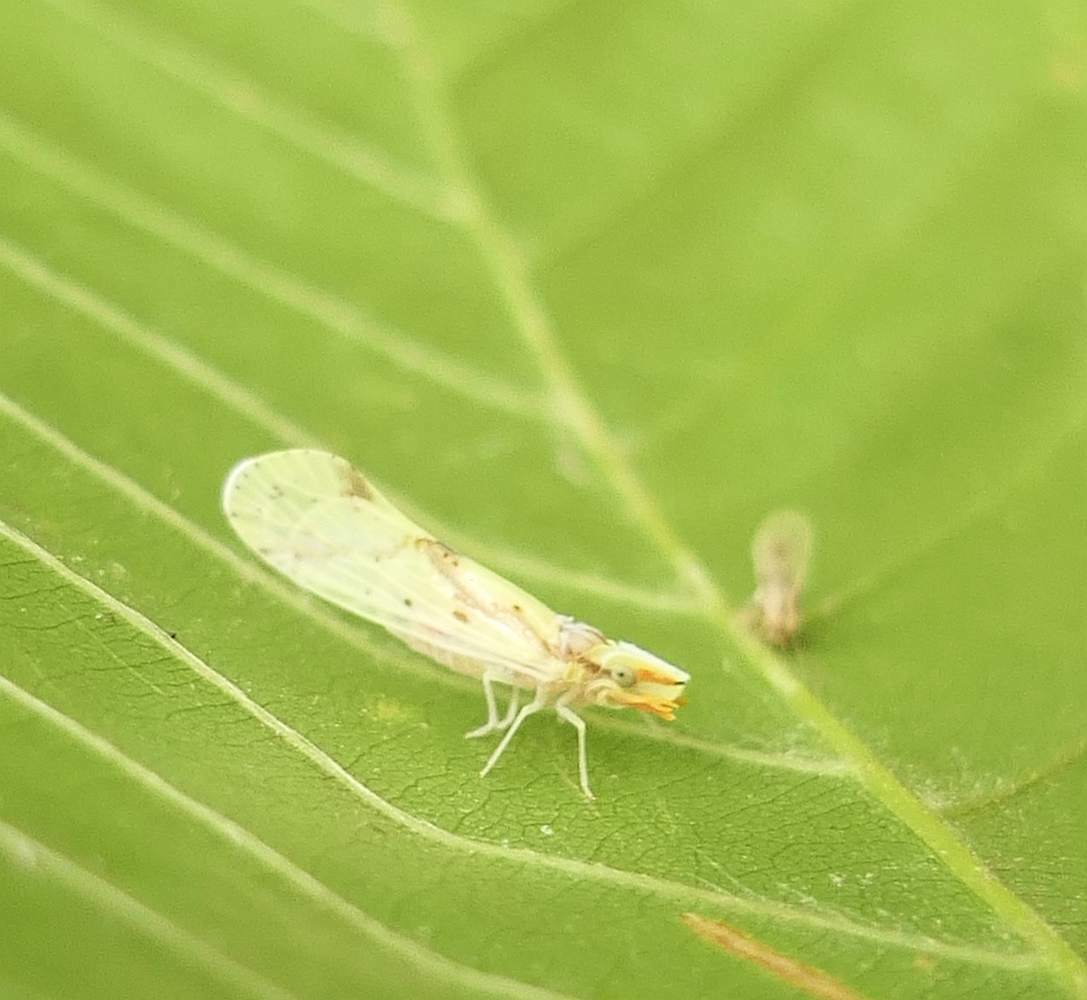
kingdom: Animalia
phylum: Arthropoda
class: Insecta
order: Hemiptera
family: Derbidae
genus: Otiocerus
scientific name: Otiocerus wolfii
